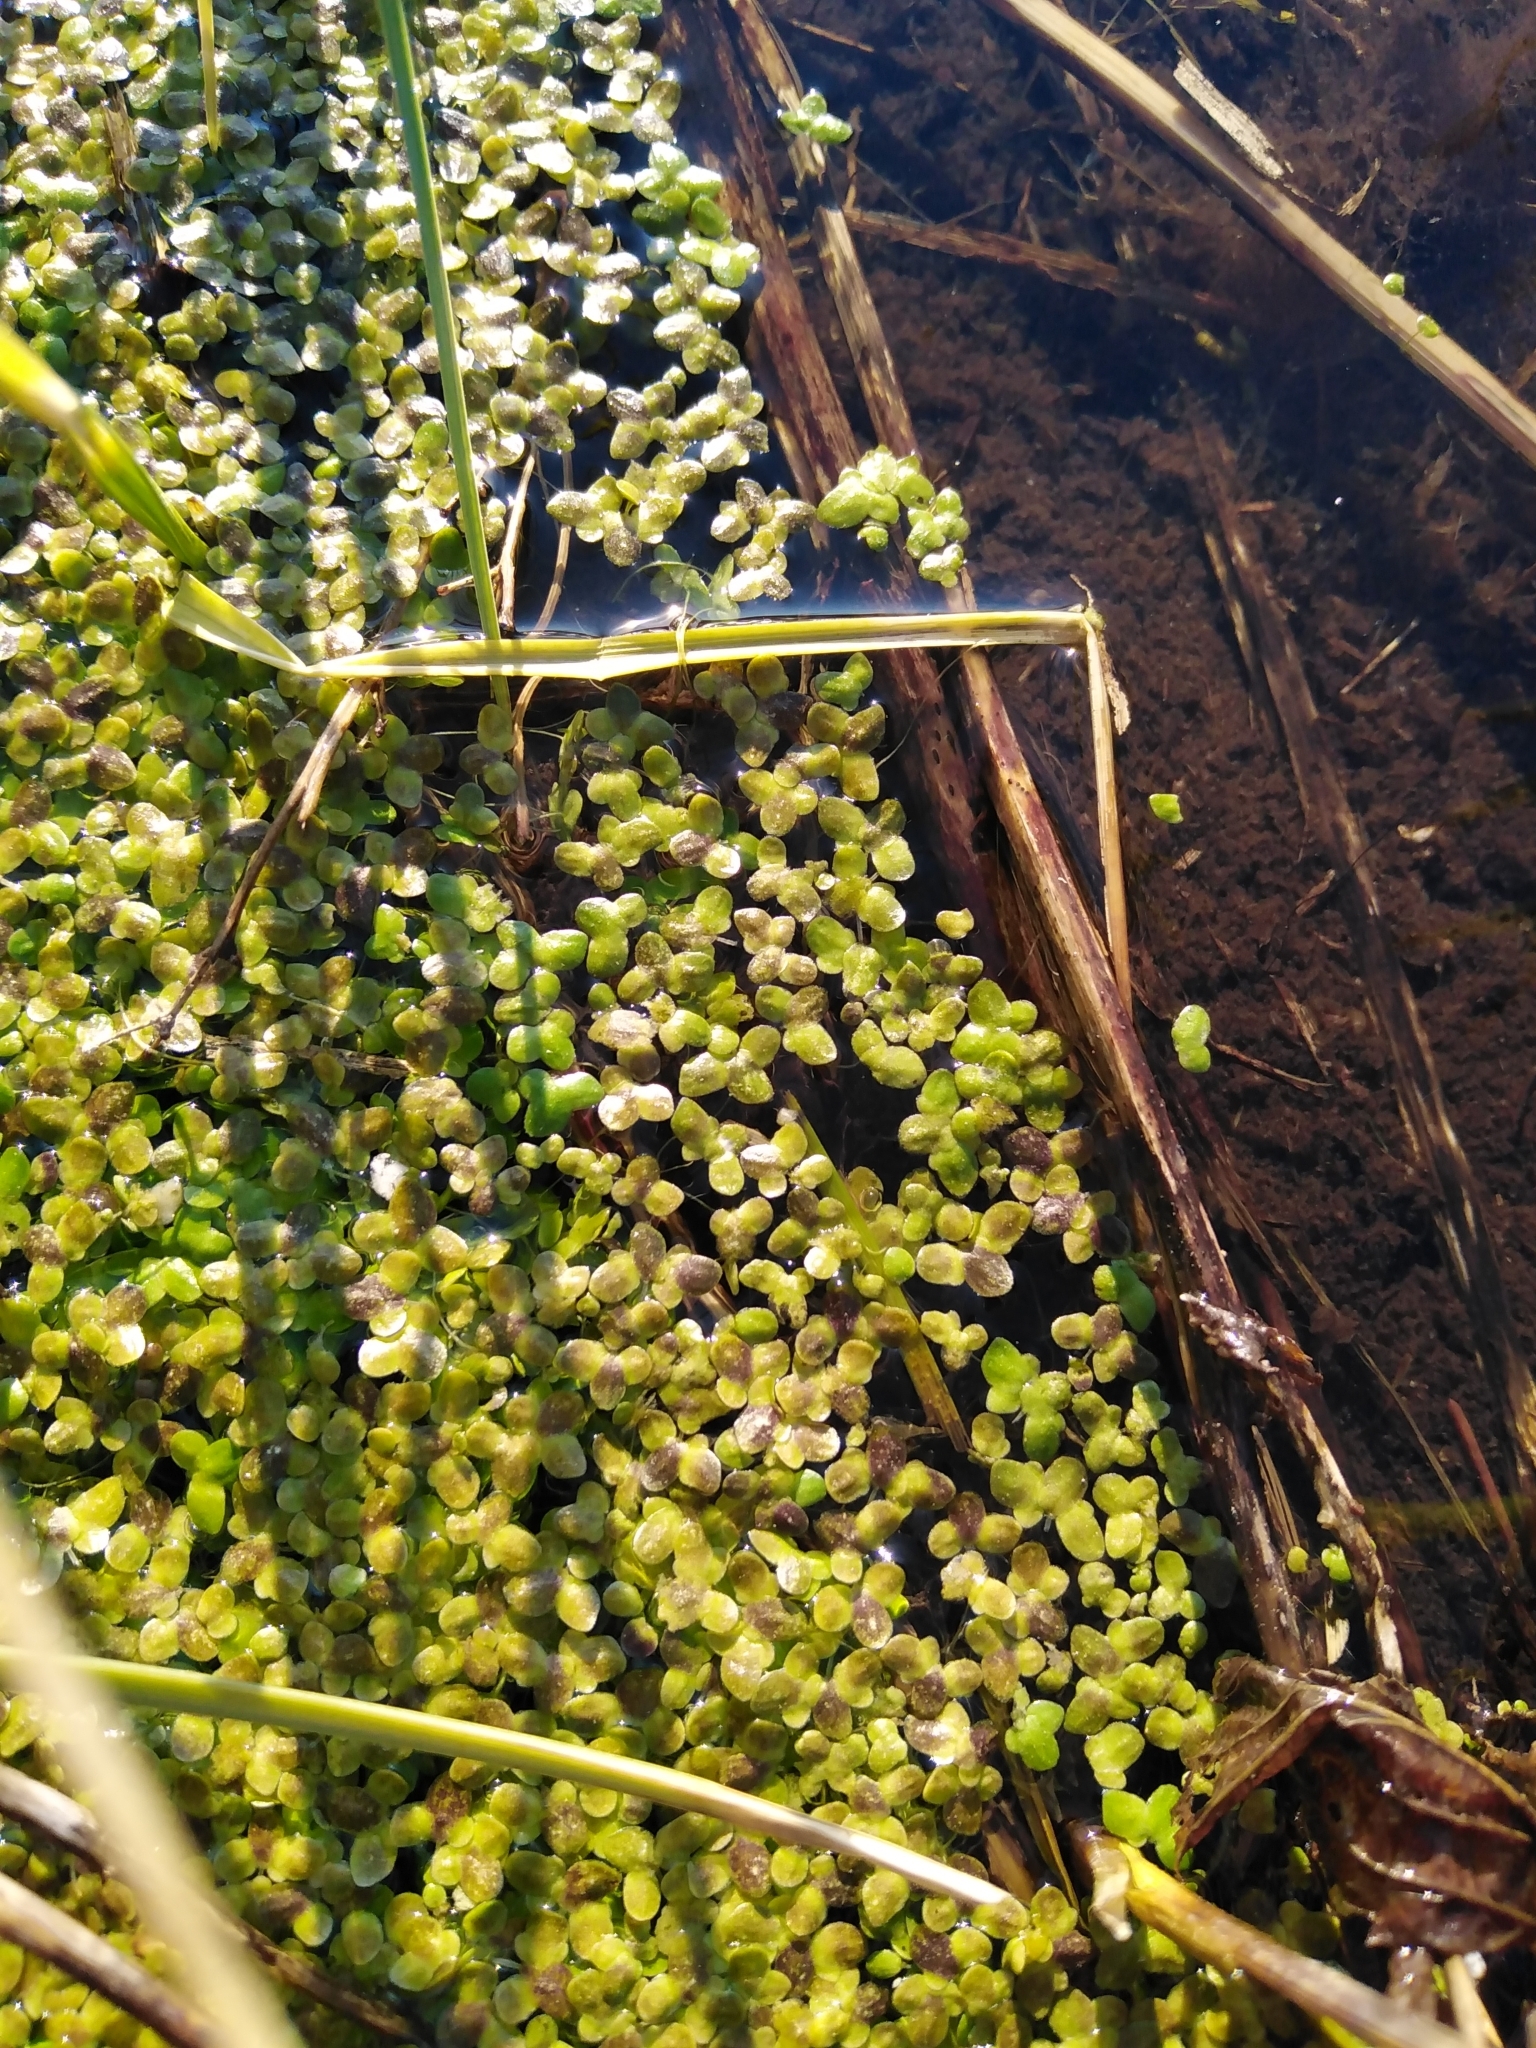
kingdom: Plantae
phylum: Tracheophyta
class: Liliopsida
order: Alismatales
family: Araceae
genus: Lemna
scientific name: Lemna minor
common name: Common duckweed
